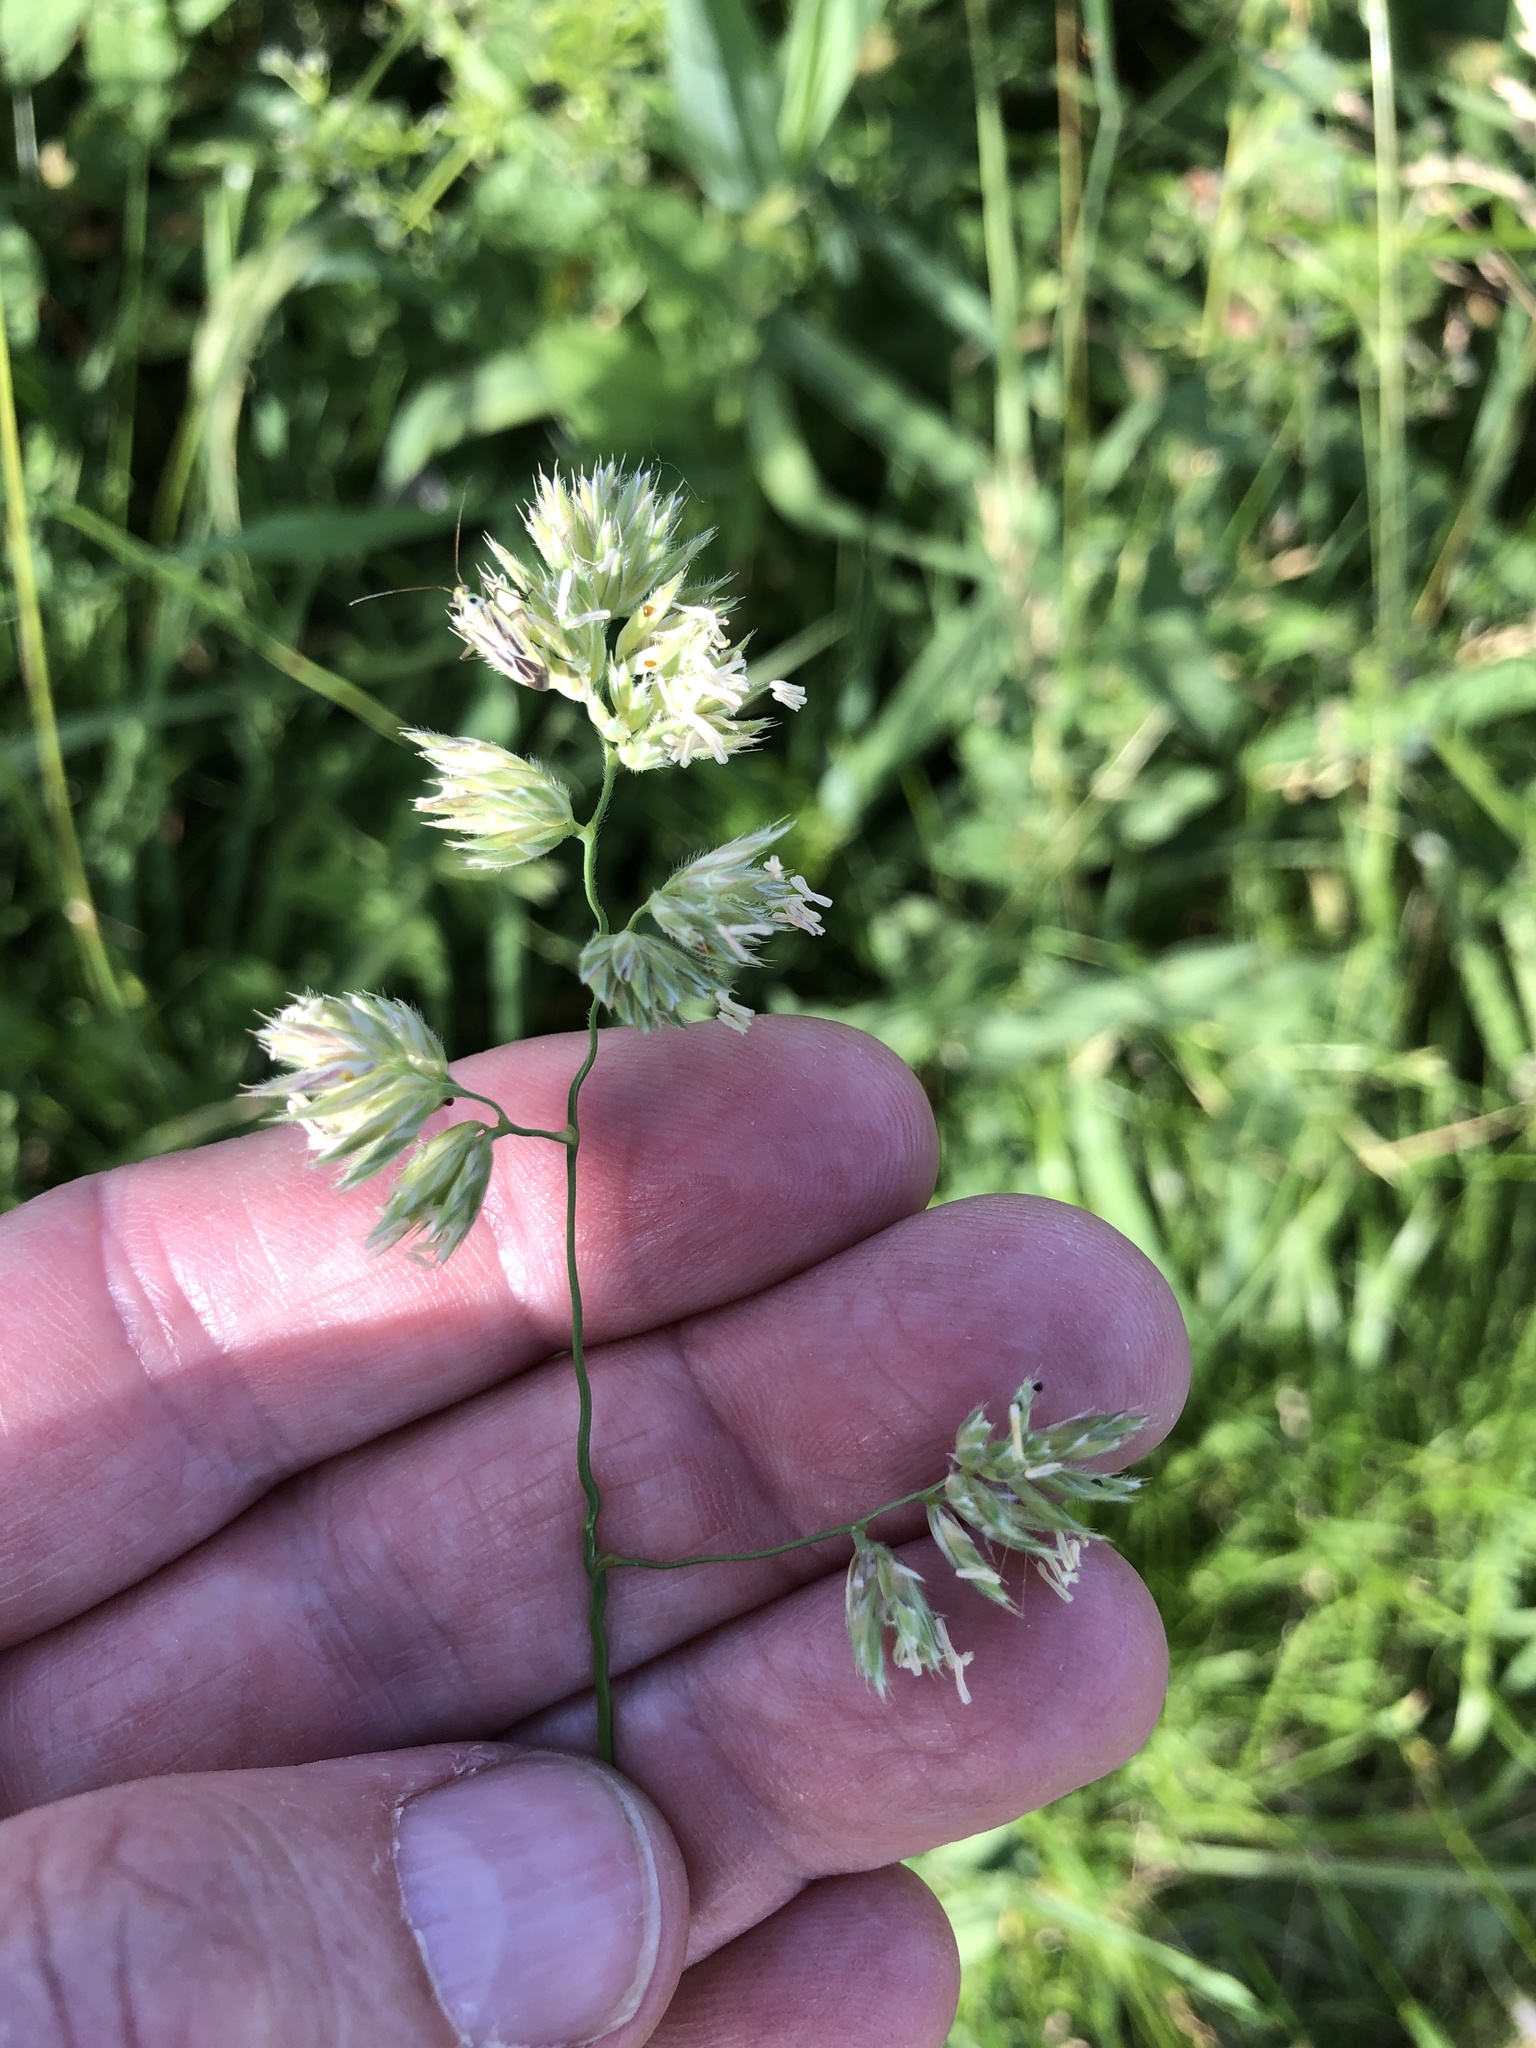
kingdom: Plantae
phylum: Tracheophyta
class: Liliopsida
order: Poales
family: Poaceae
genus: Dactylis
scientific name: Dactylis glomerata
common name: Orchardgrass
